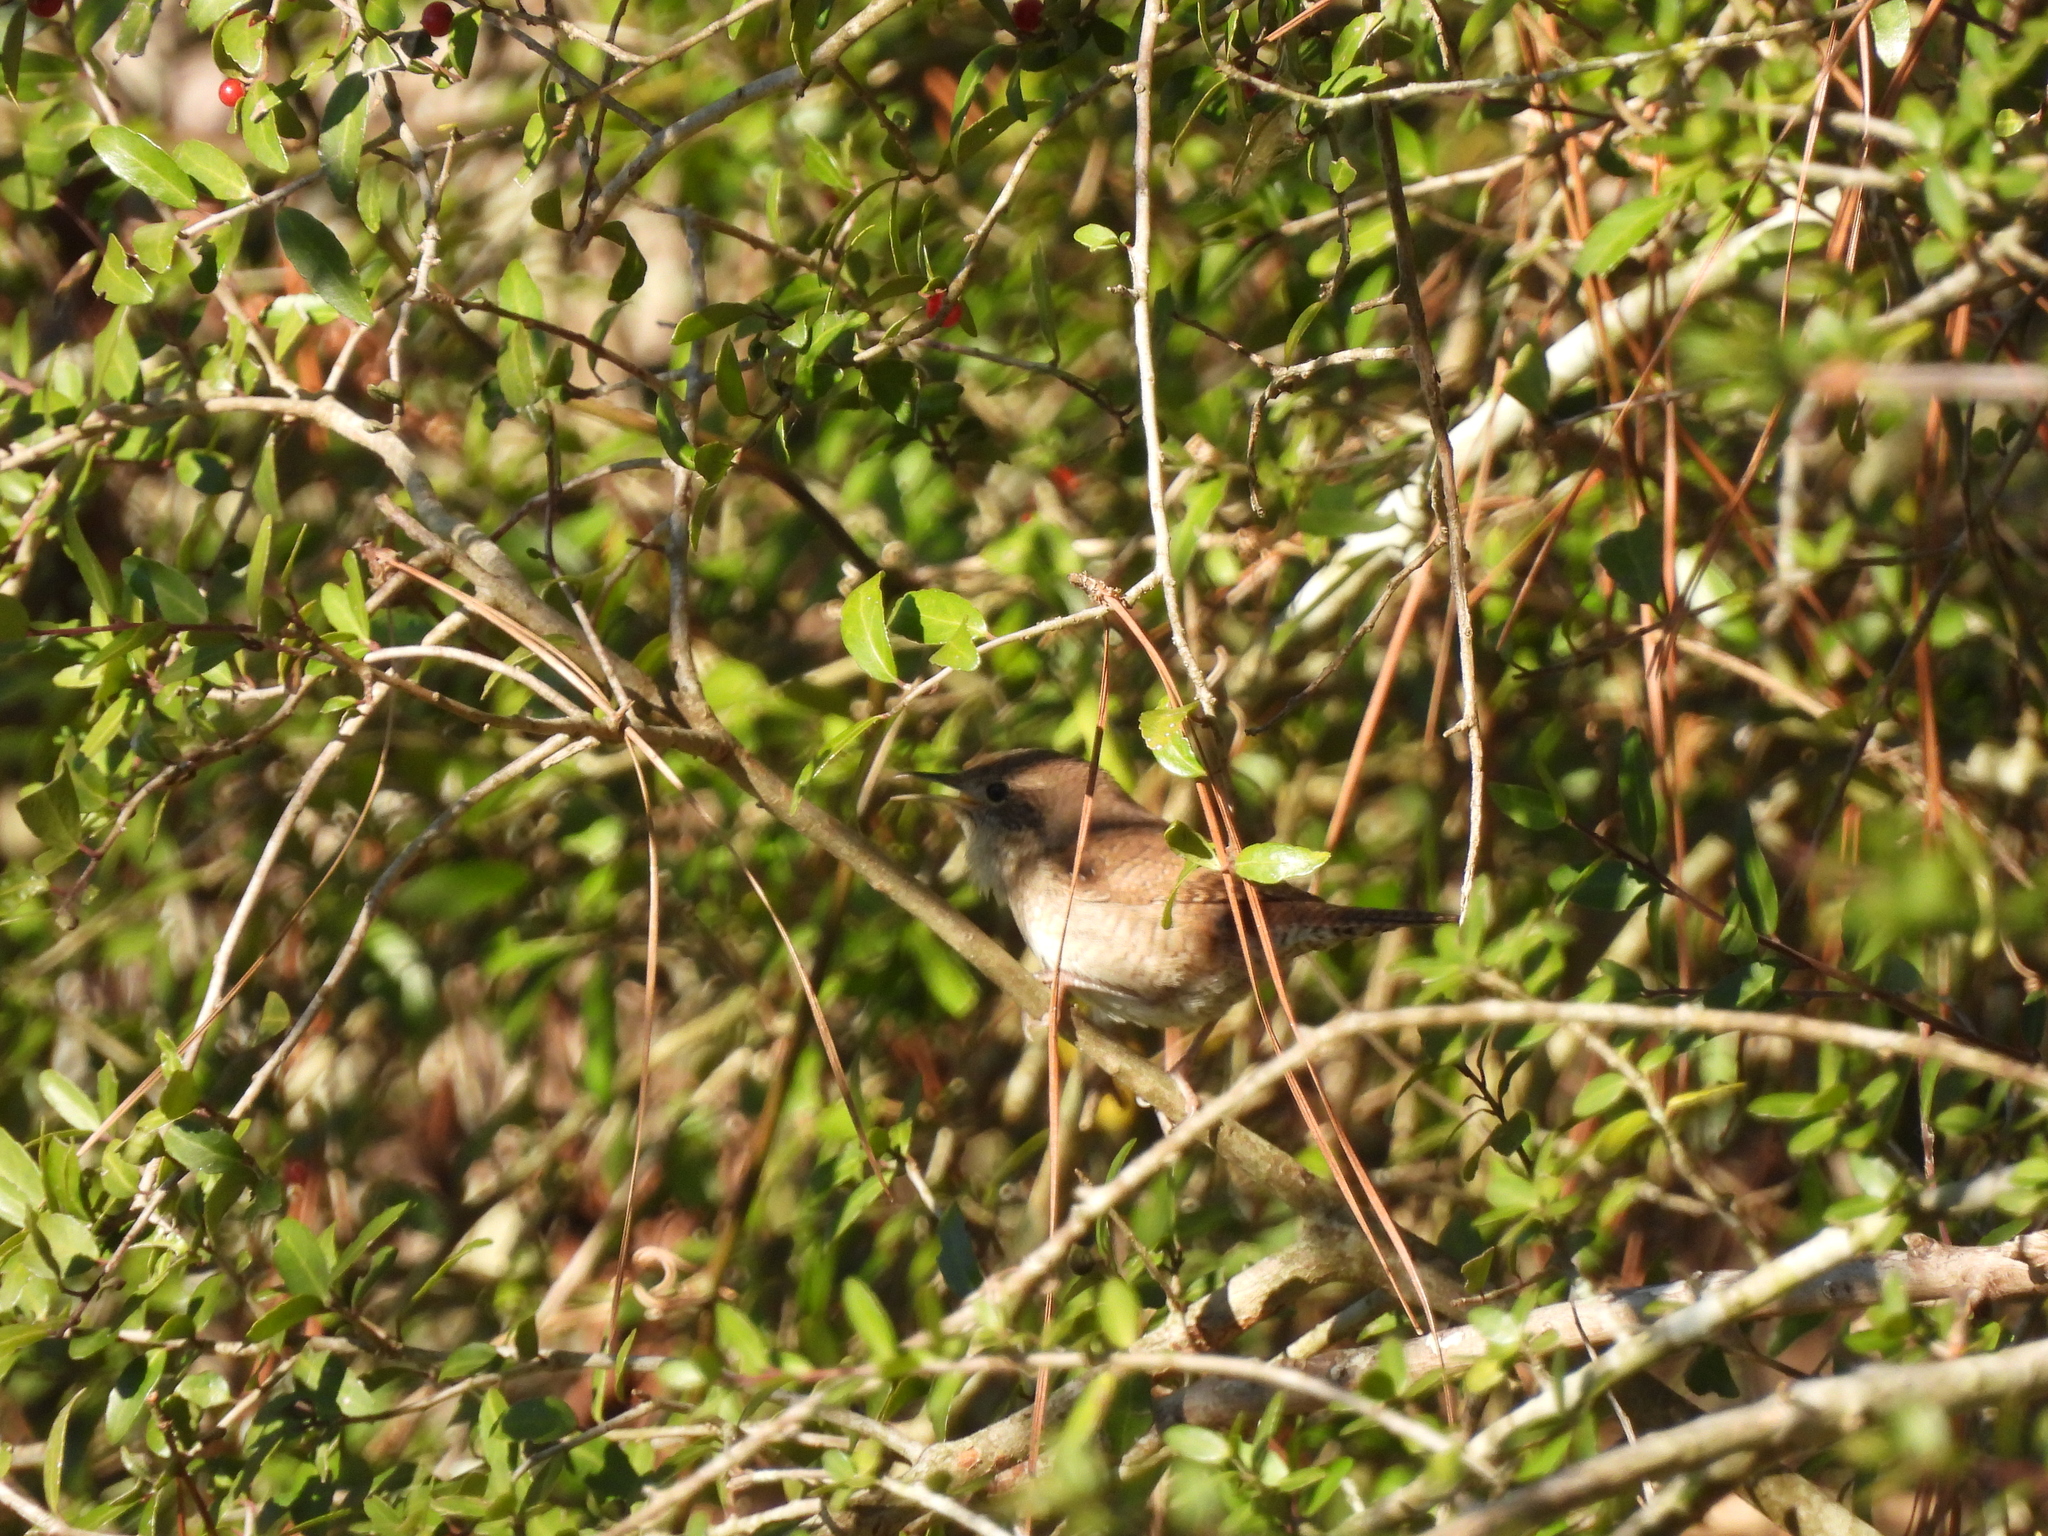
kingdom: Animalia
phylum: Chordata
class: Aves
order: Passeriformes
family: Troglodytidae
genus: Troglodytes
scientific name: Troglodytes aedon
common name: House wren
